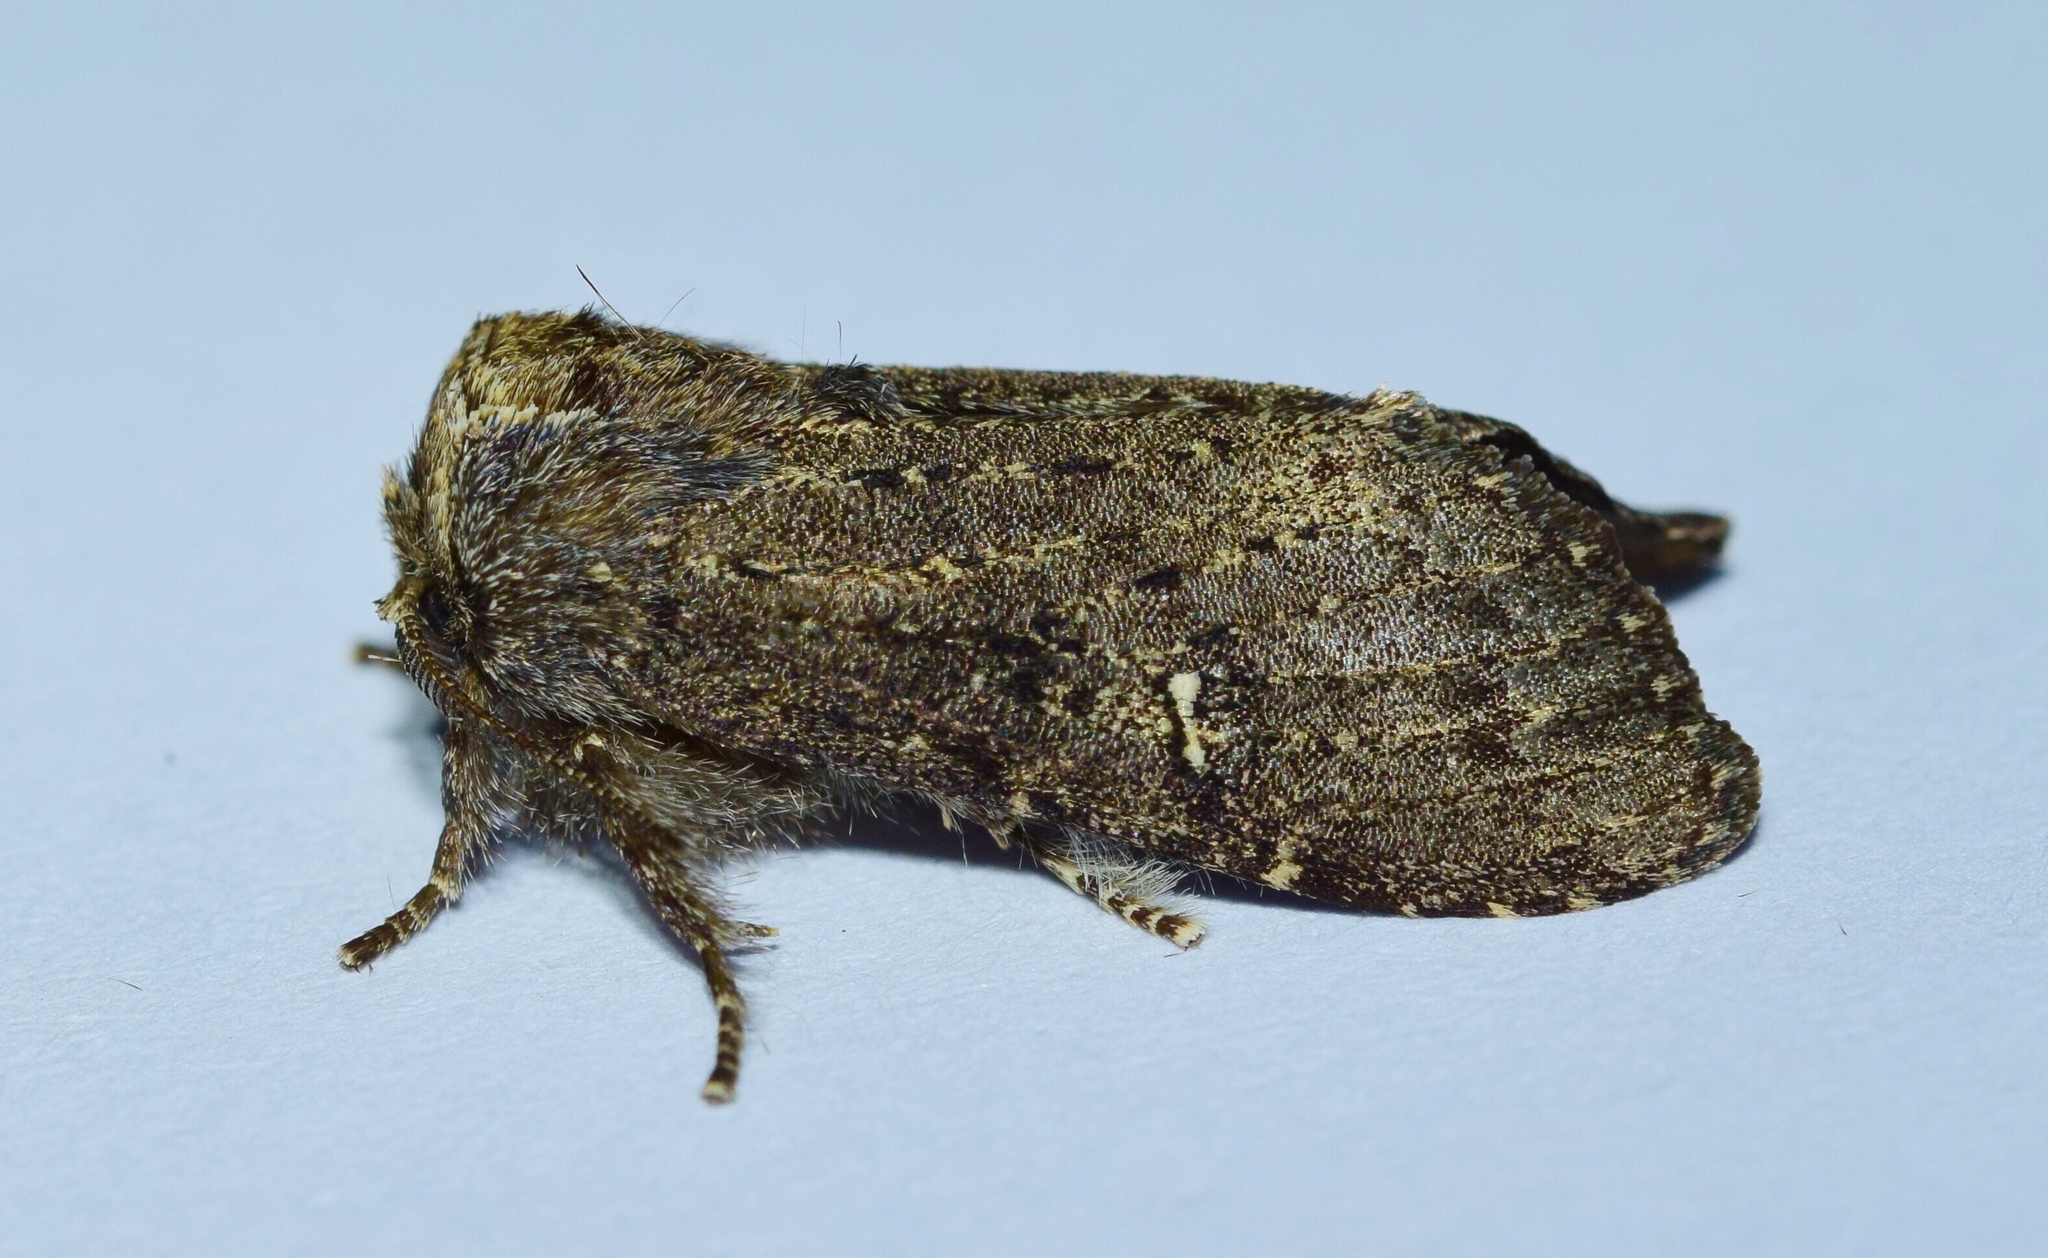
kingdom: Animalia
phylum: Arthropoda
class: Insecta
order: Lepidoptera
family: Notodontidae
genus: Eurystaura
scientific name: Eurystaura griseitincta
